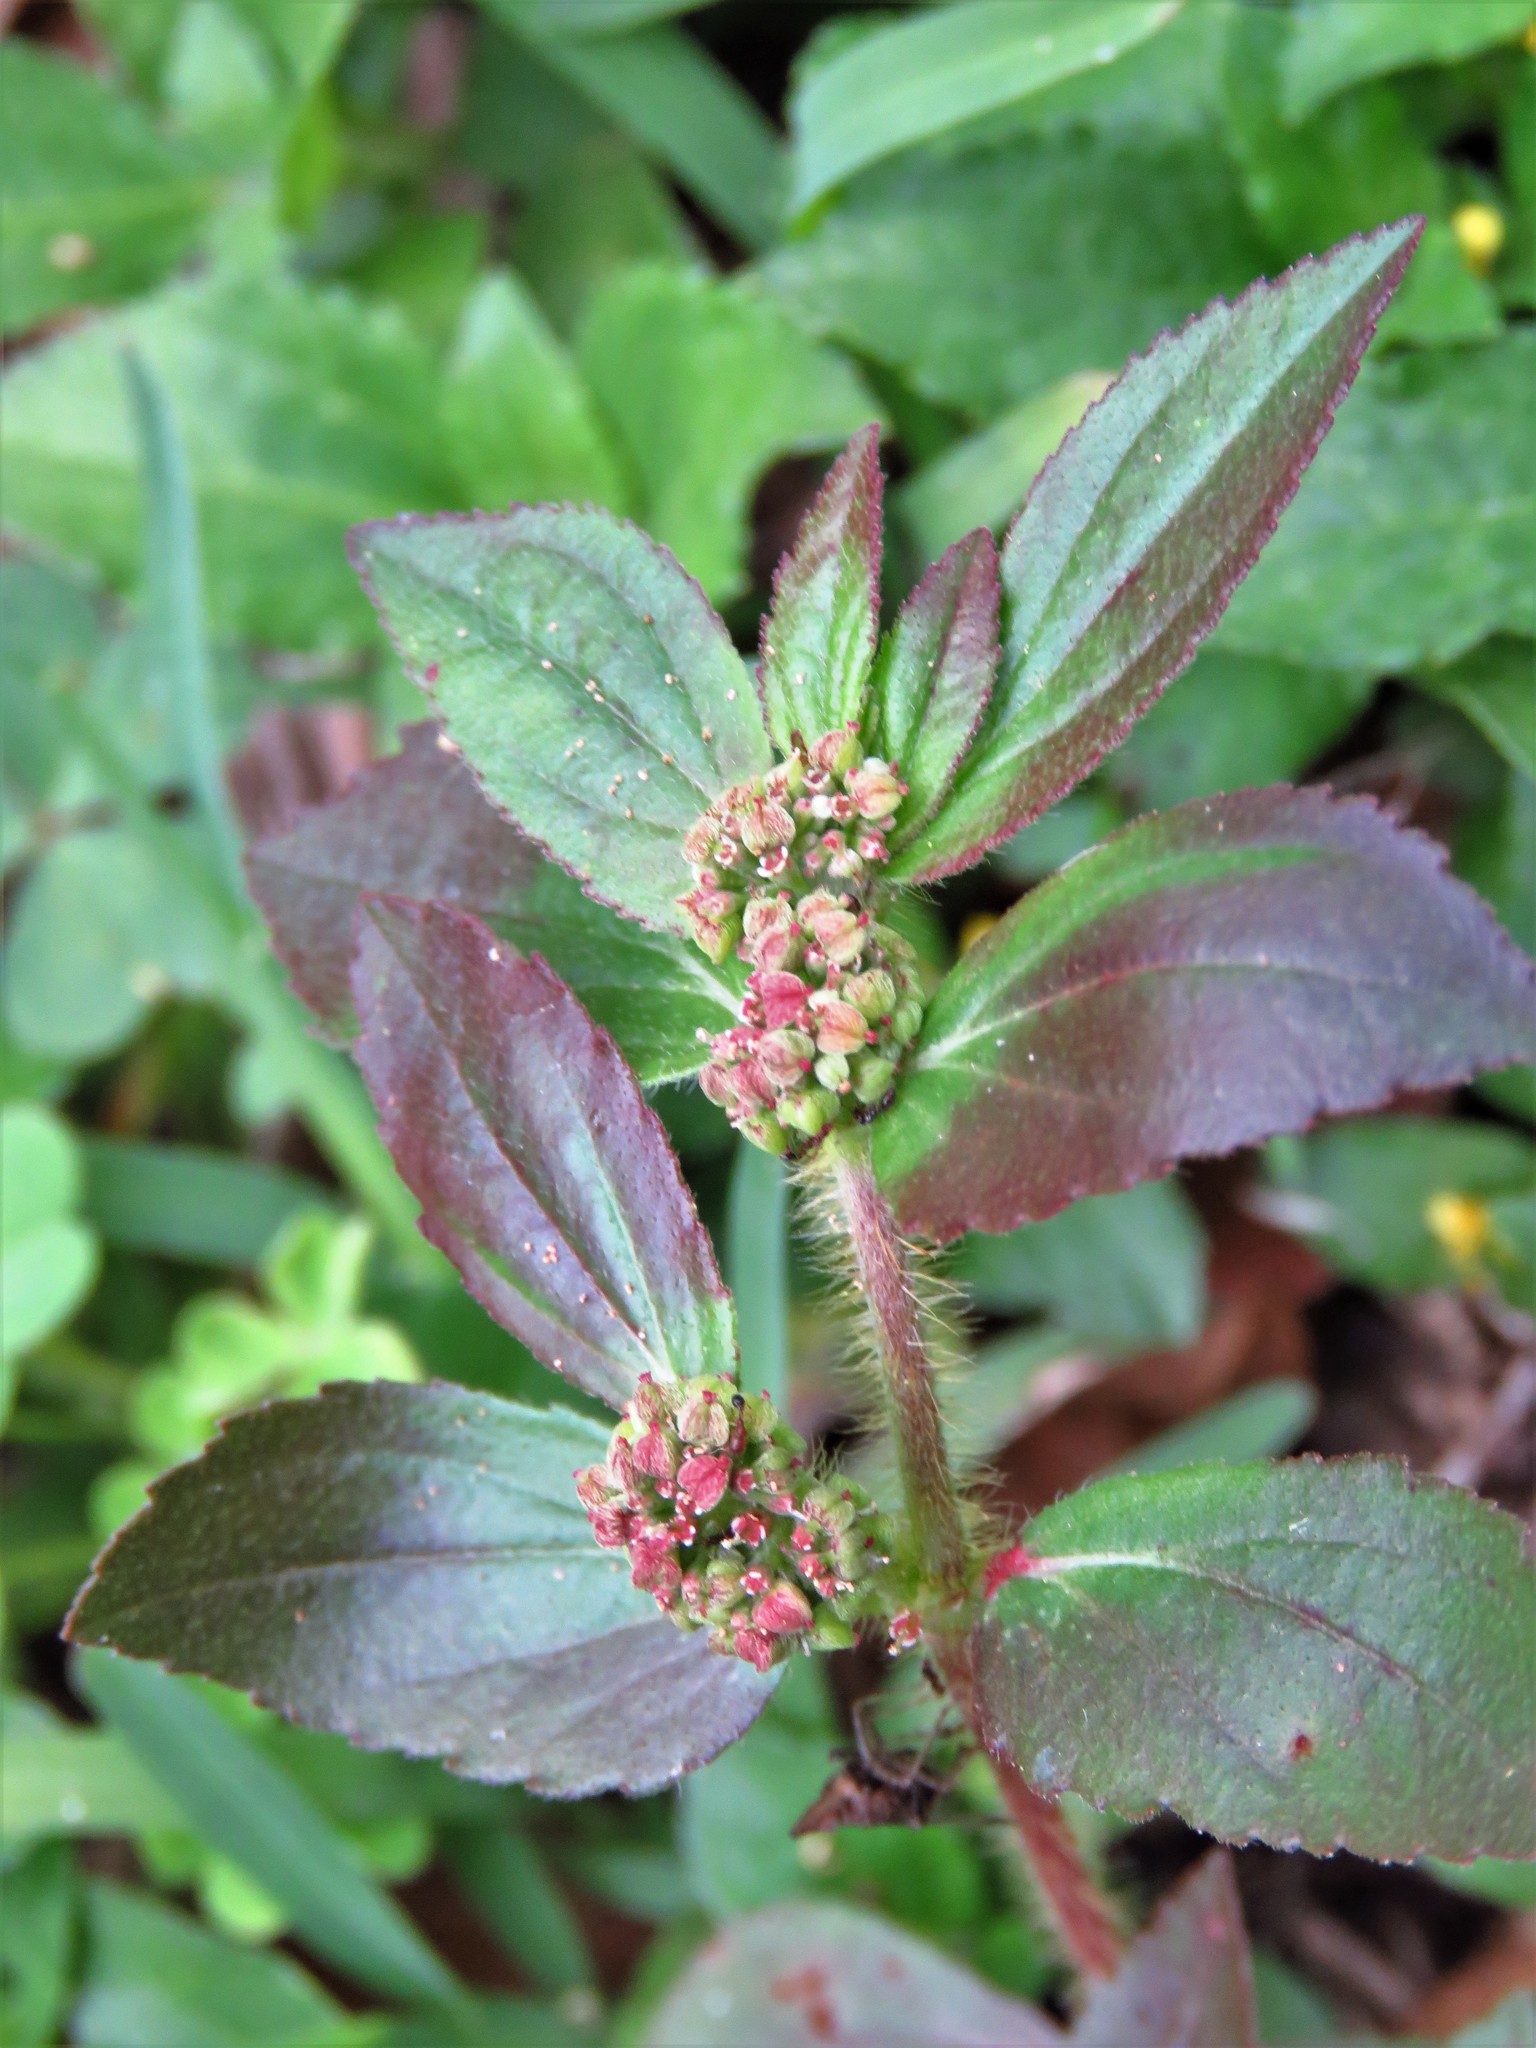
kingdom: Plantae
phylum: Tracheophyta
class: Magnoliopsida
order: Malpighiales
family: Euphorbiaceae
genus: Euphorbia
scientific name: Euphorbia hirta
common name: Pillpod sandmat
